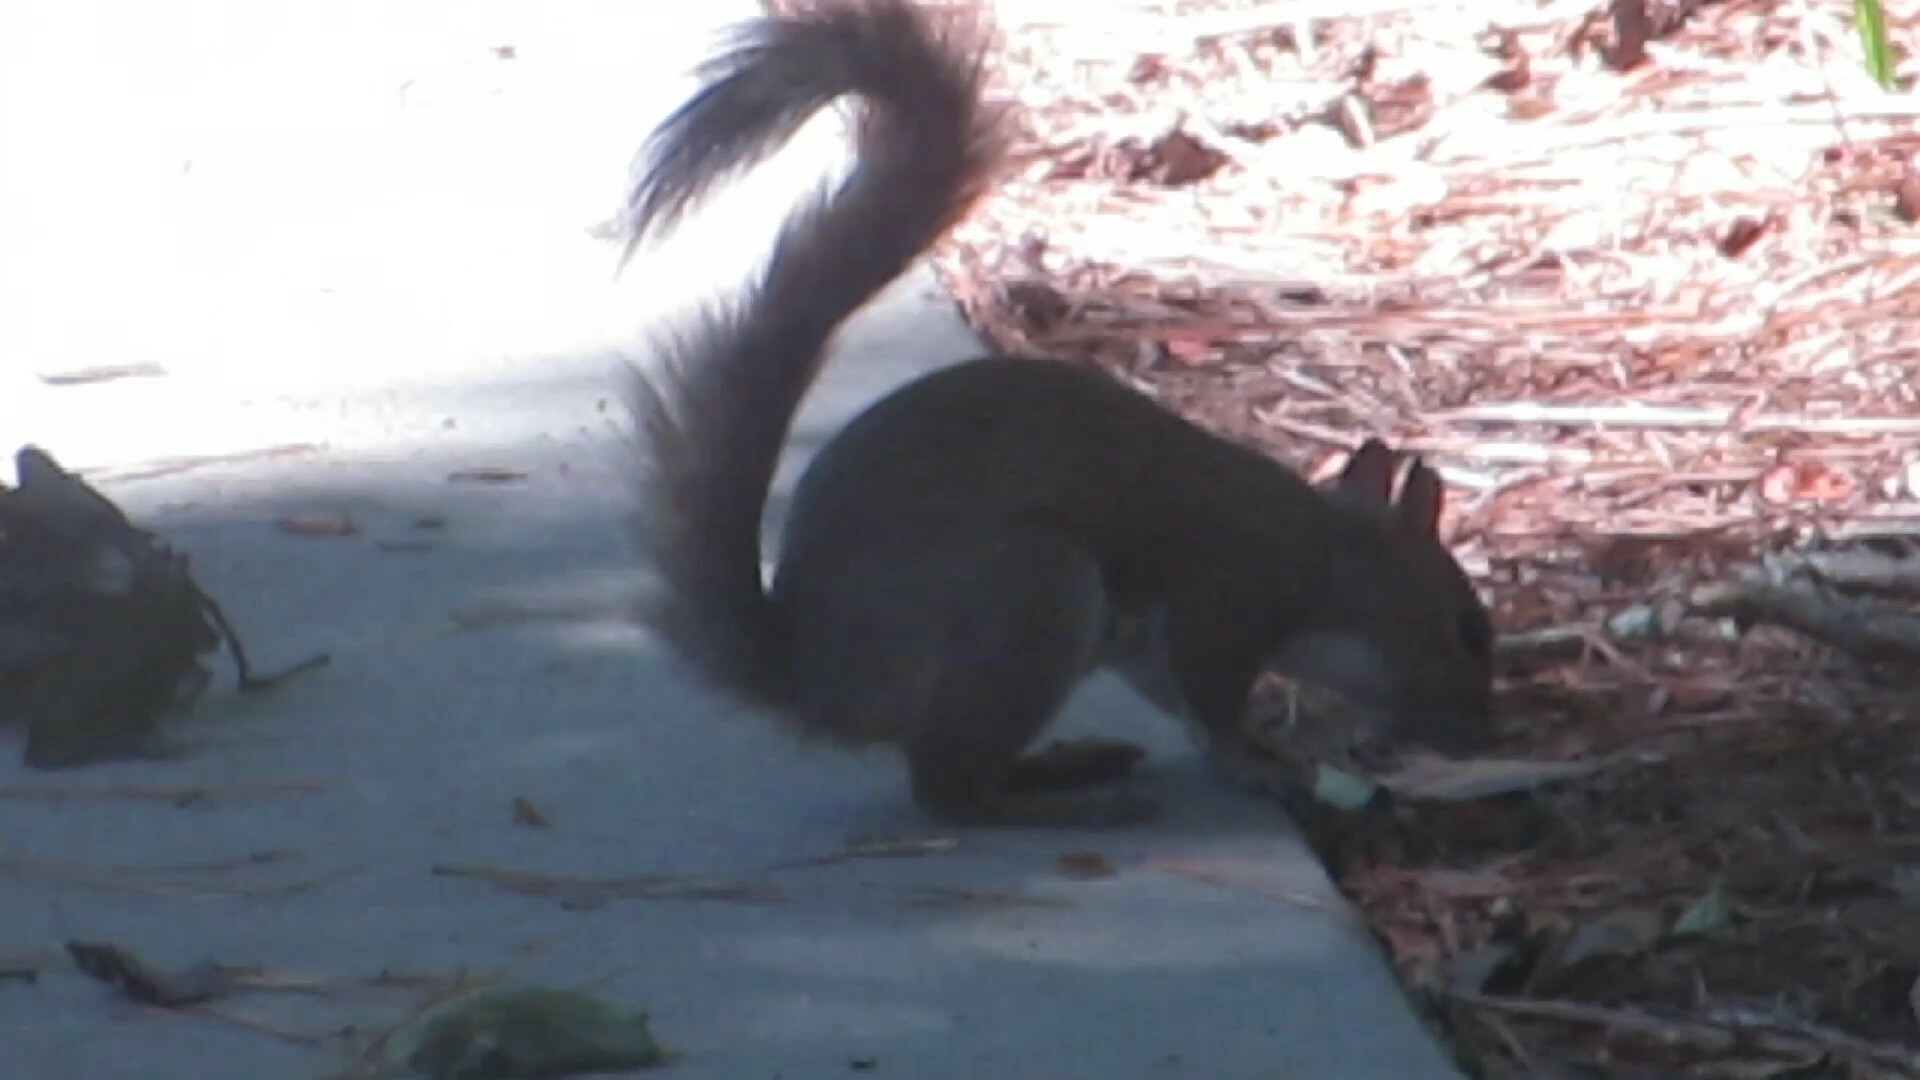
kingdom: Animalia
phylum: Chordata
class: Mammalia
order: Rodentia
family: Sciuridae
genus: Sciurus
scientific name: Sciurus carolinensis
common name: Eastern gray squirrel
